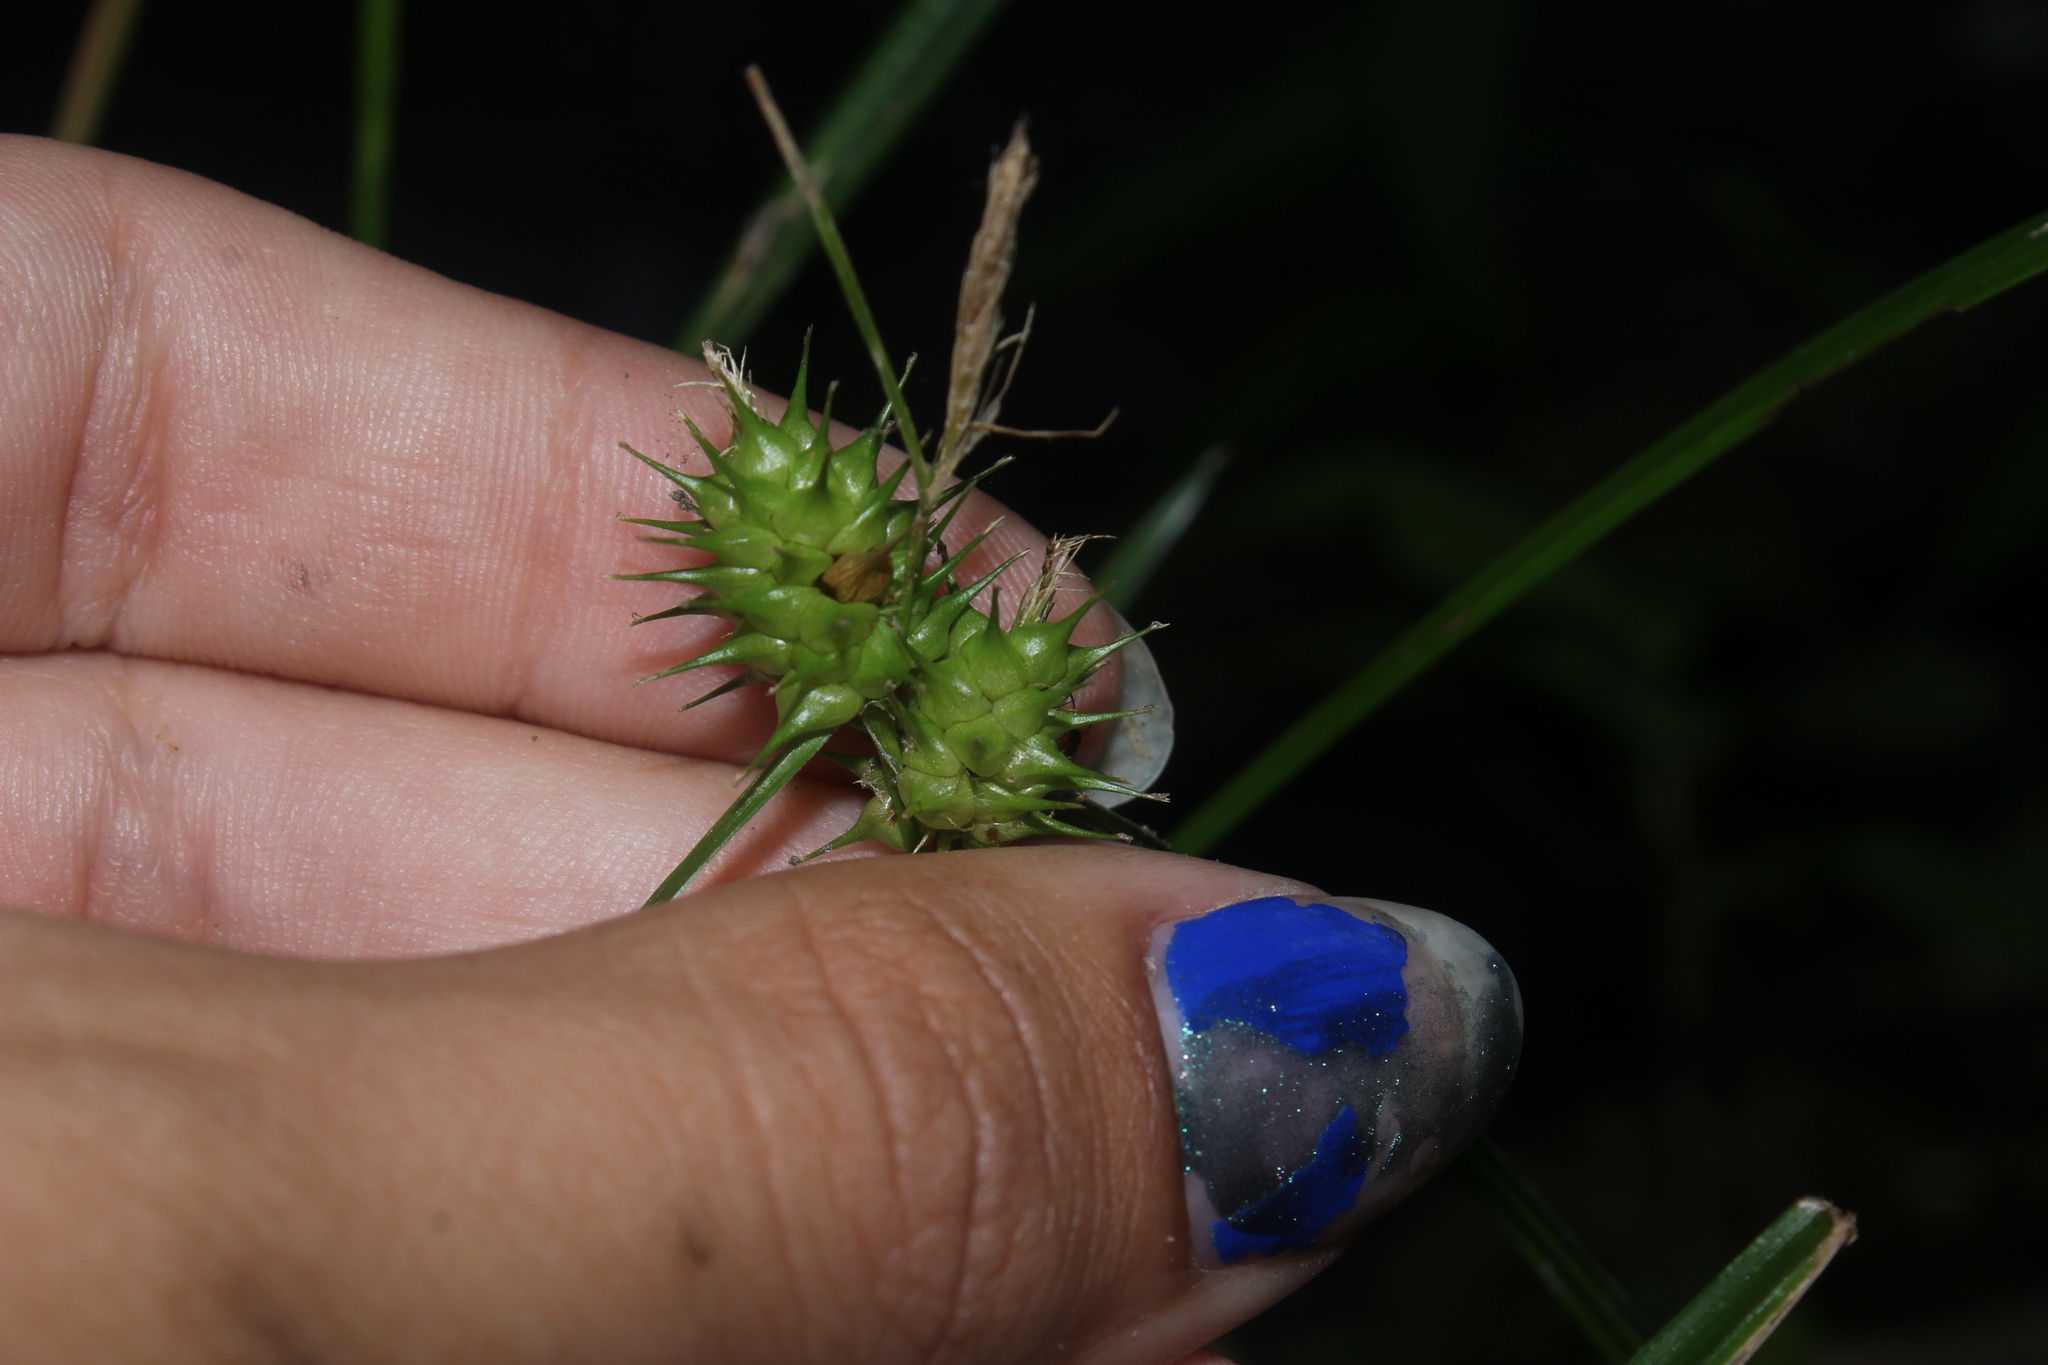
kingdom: Plantae
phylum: Tracheophyta
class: Liliopsida
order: Poales
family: Cyperaceae
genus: Carex
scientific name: Carex lupulina
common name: Hop sedge
